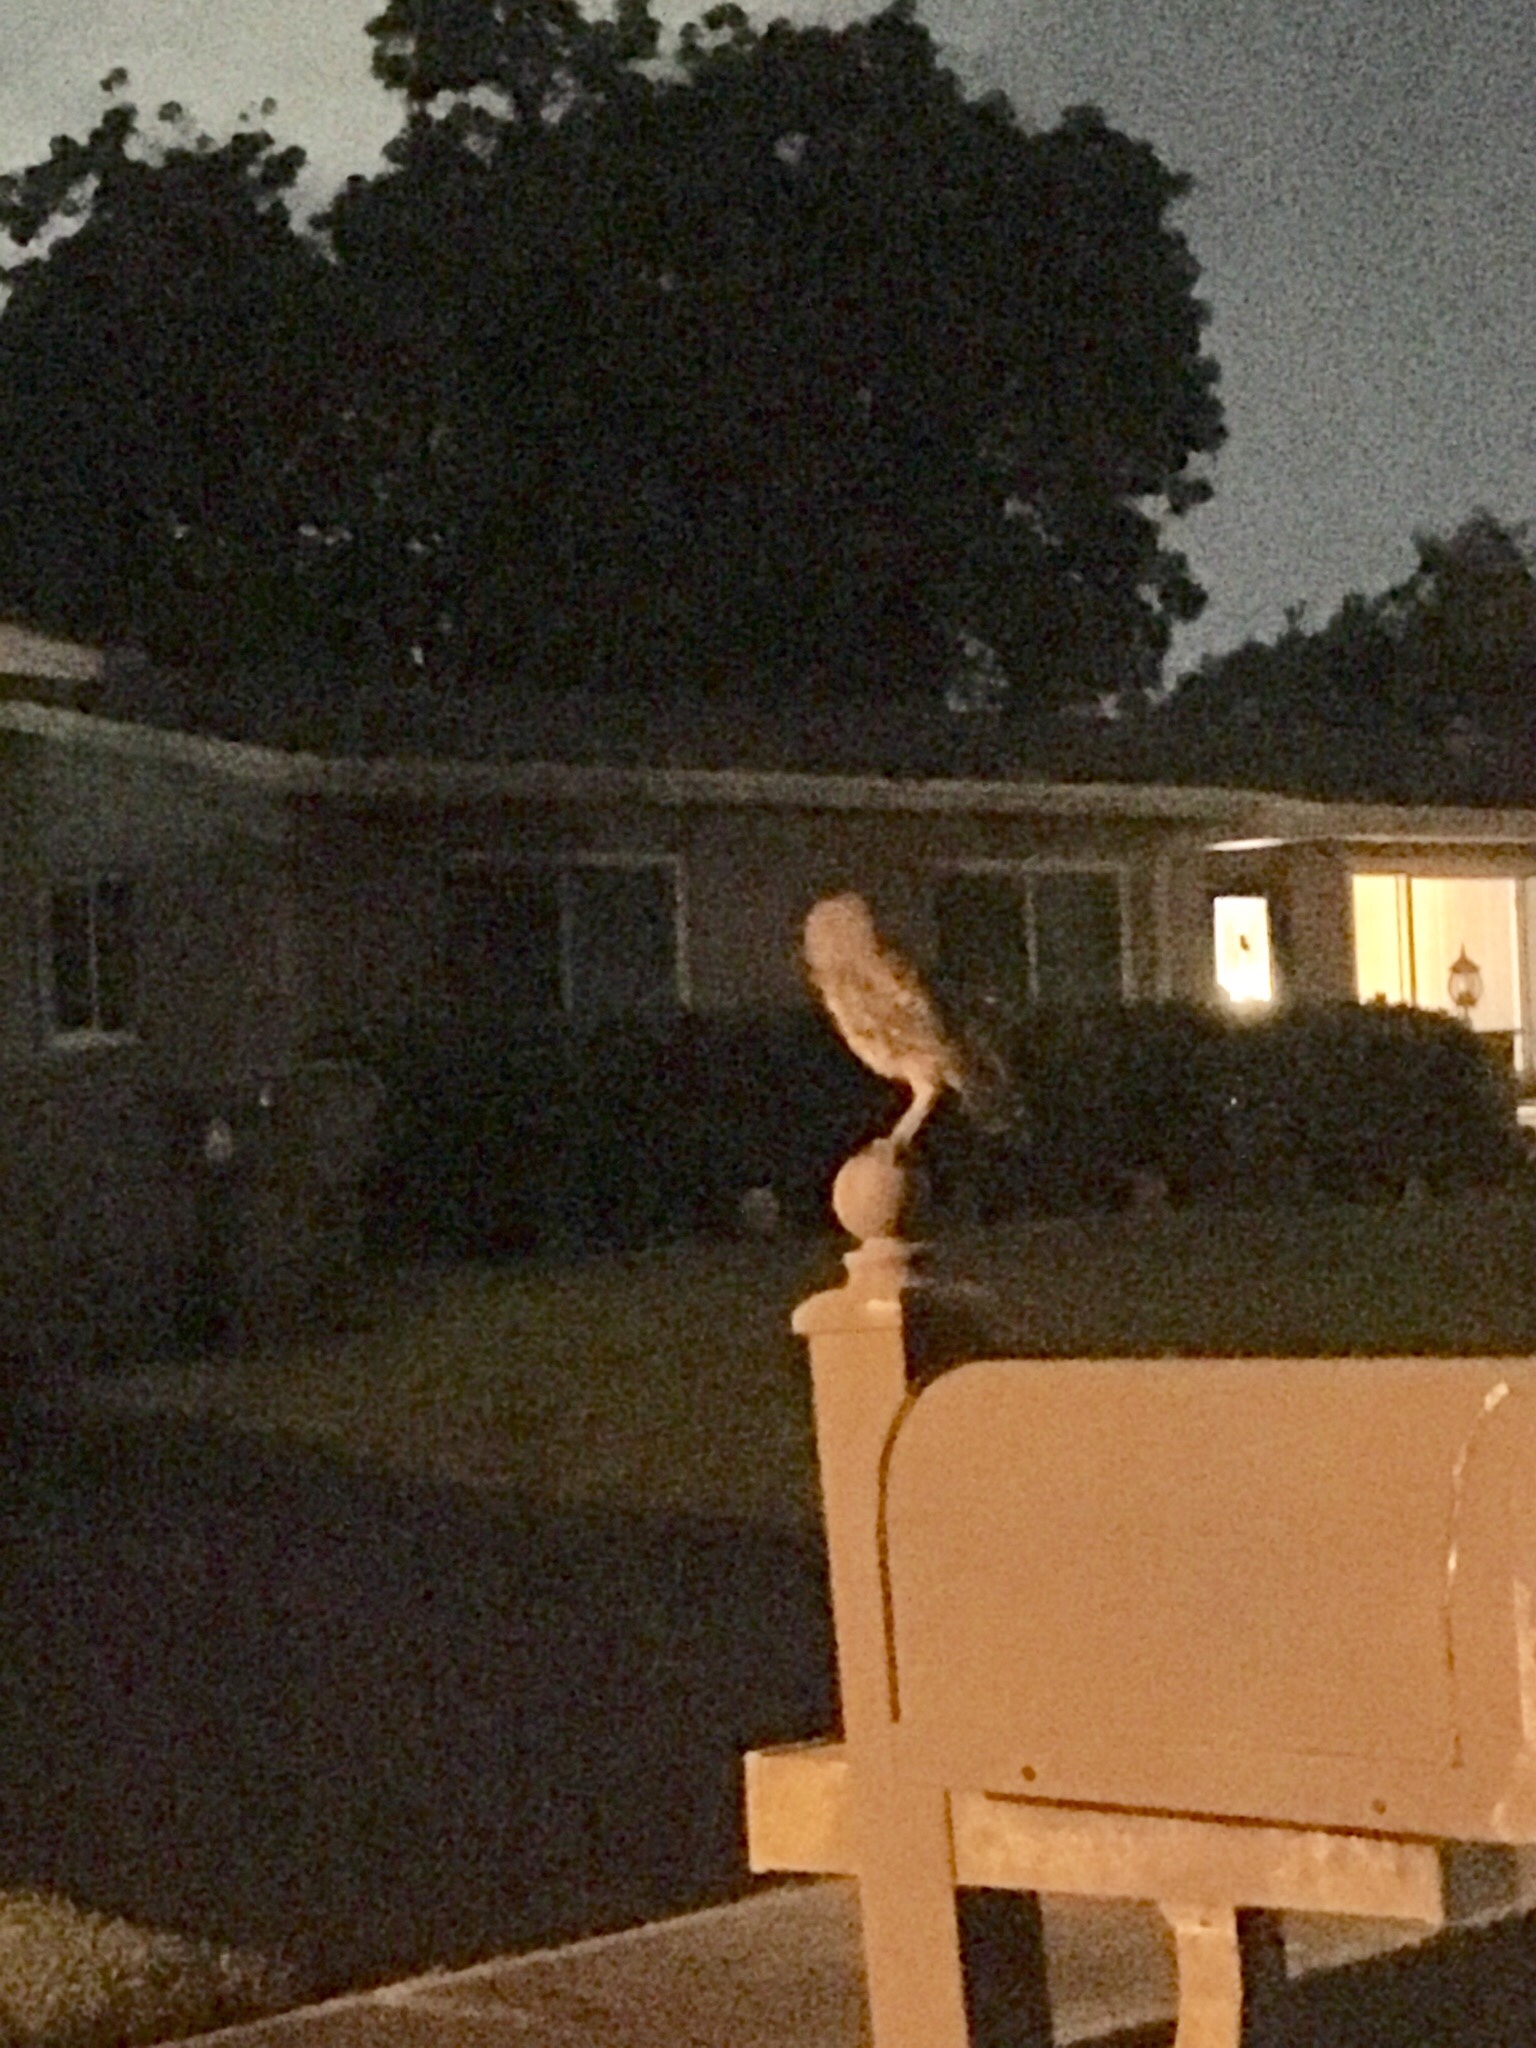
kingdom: Animalia
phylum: Chordata
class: Aves
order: Strigiformes
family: Strigidae
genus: Athene
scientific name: Athene cunicularia
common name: Burrowing owl
